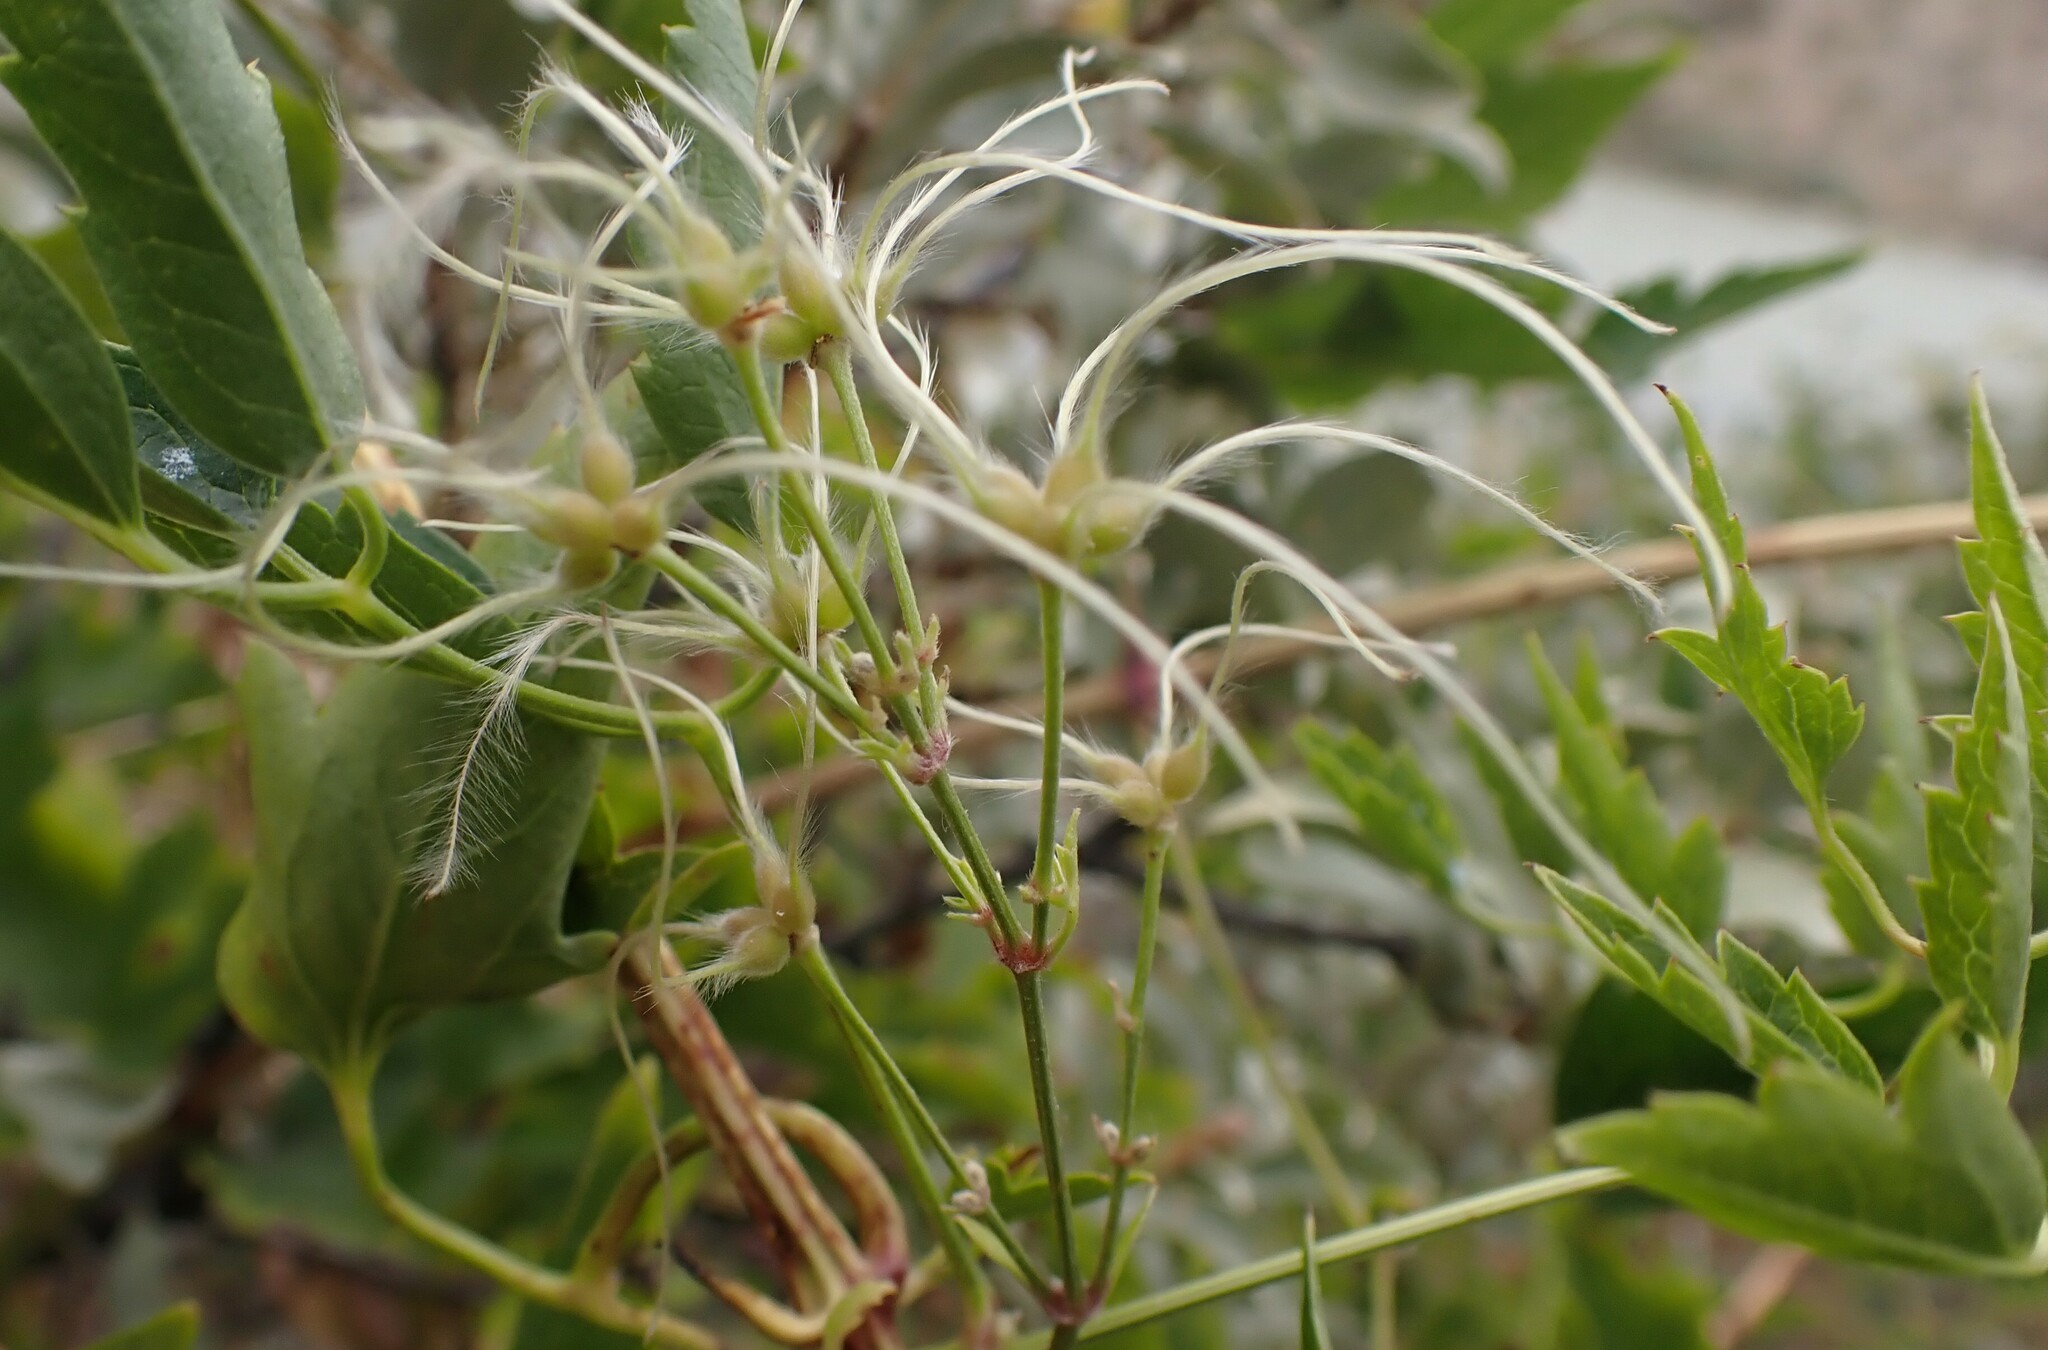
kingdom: Plantae
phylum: Tracheophyta
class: Magnoliopsida
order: Ranunculales
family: Ranunculaceae
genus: Clematis
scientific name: Clematis ligusticifolia
